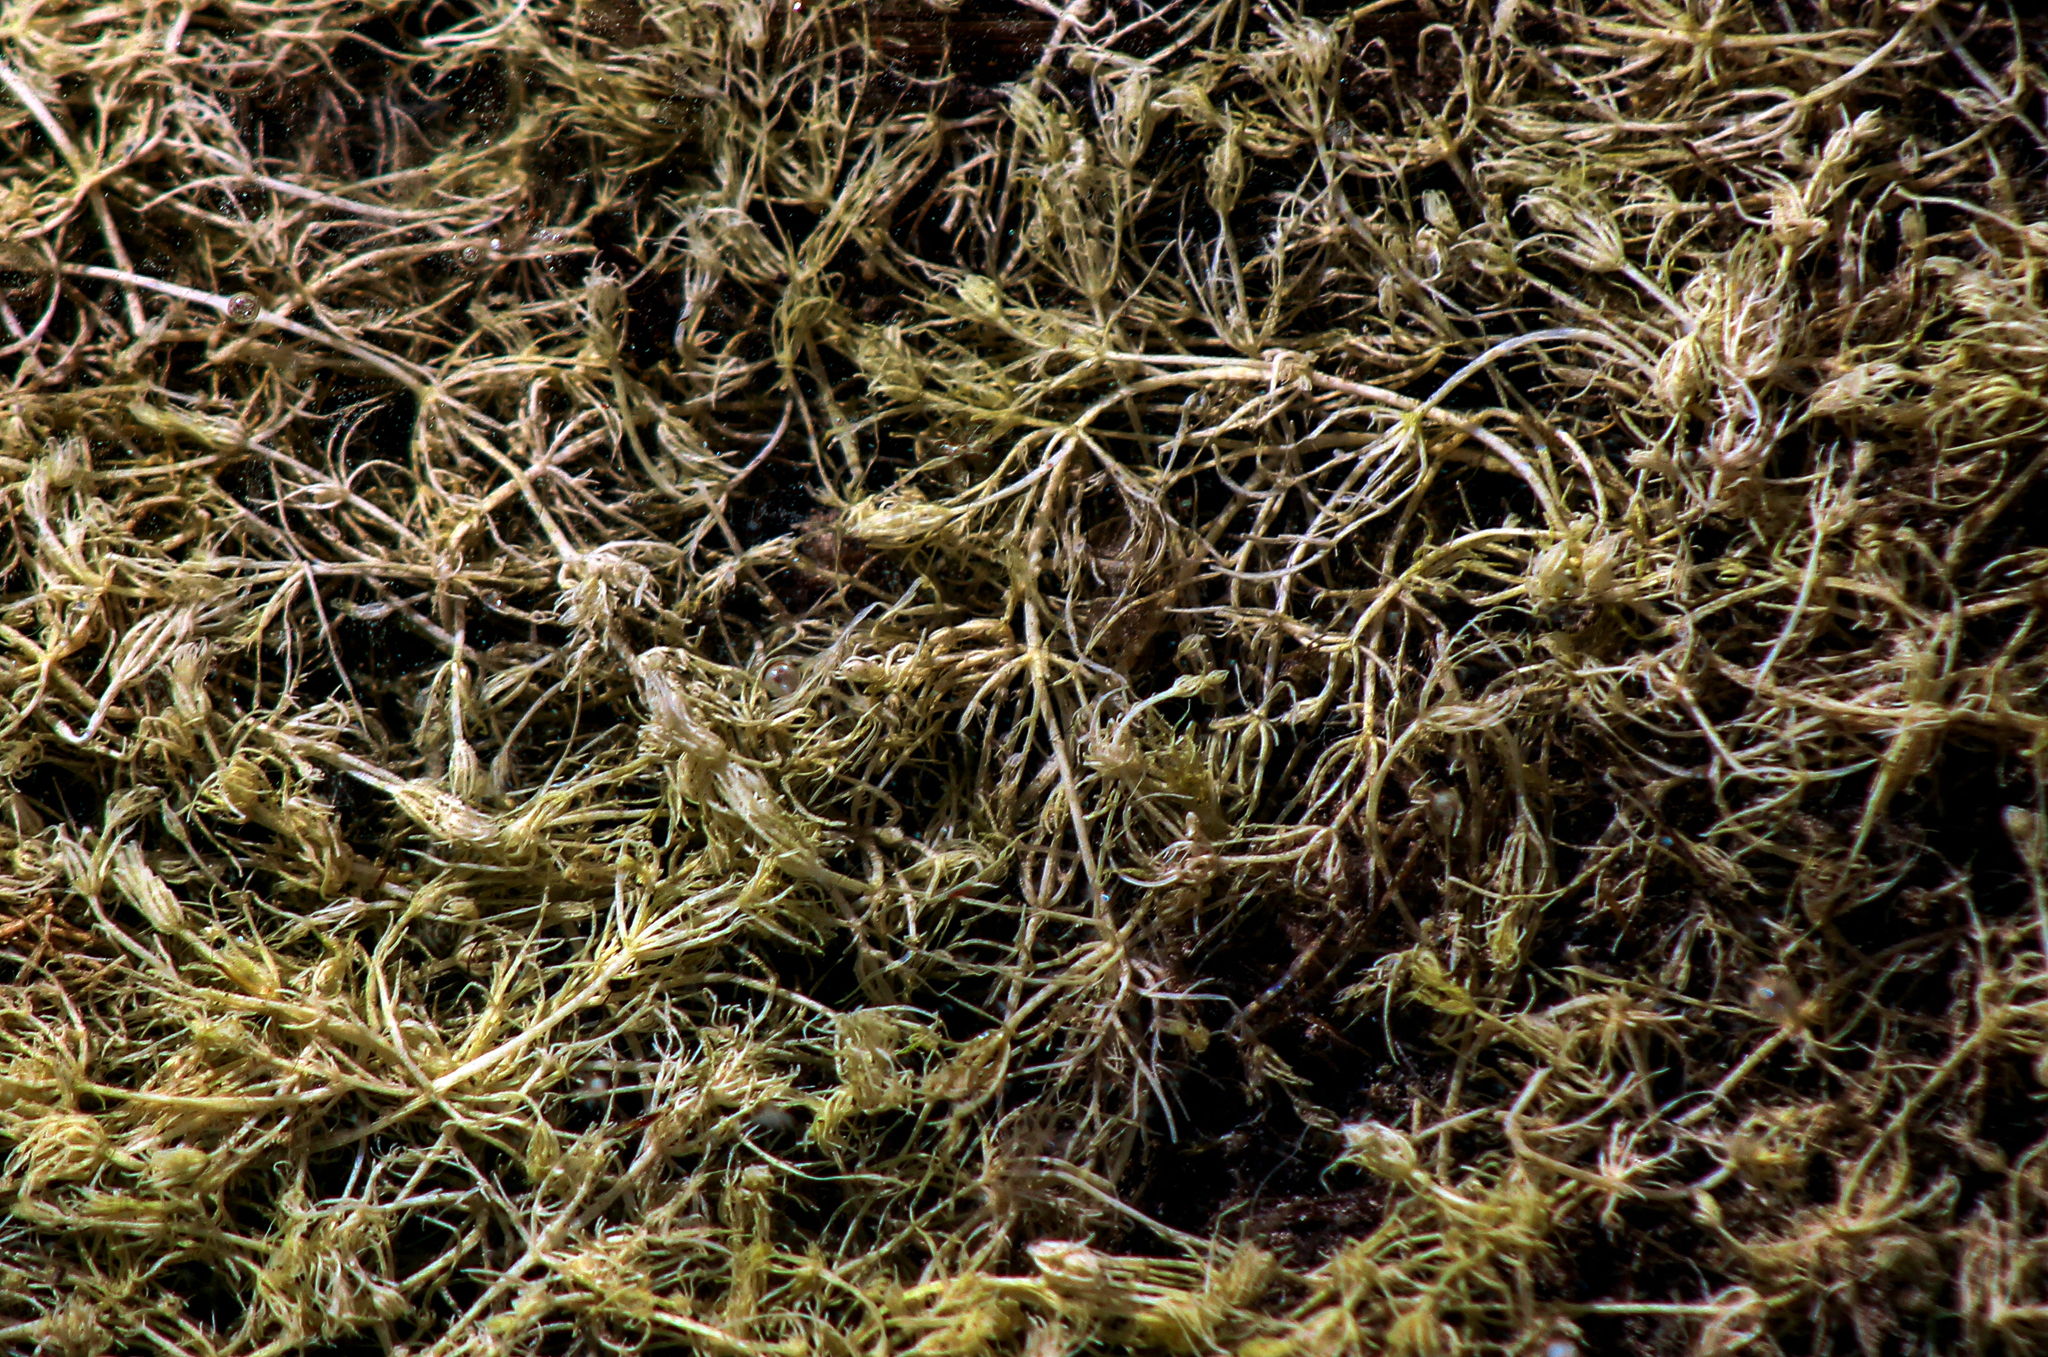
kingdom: Plantae
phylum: Charophyta
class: Charophyceae
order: Charales
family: Characeae
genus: Chara
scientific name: Chara
